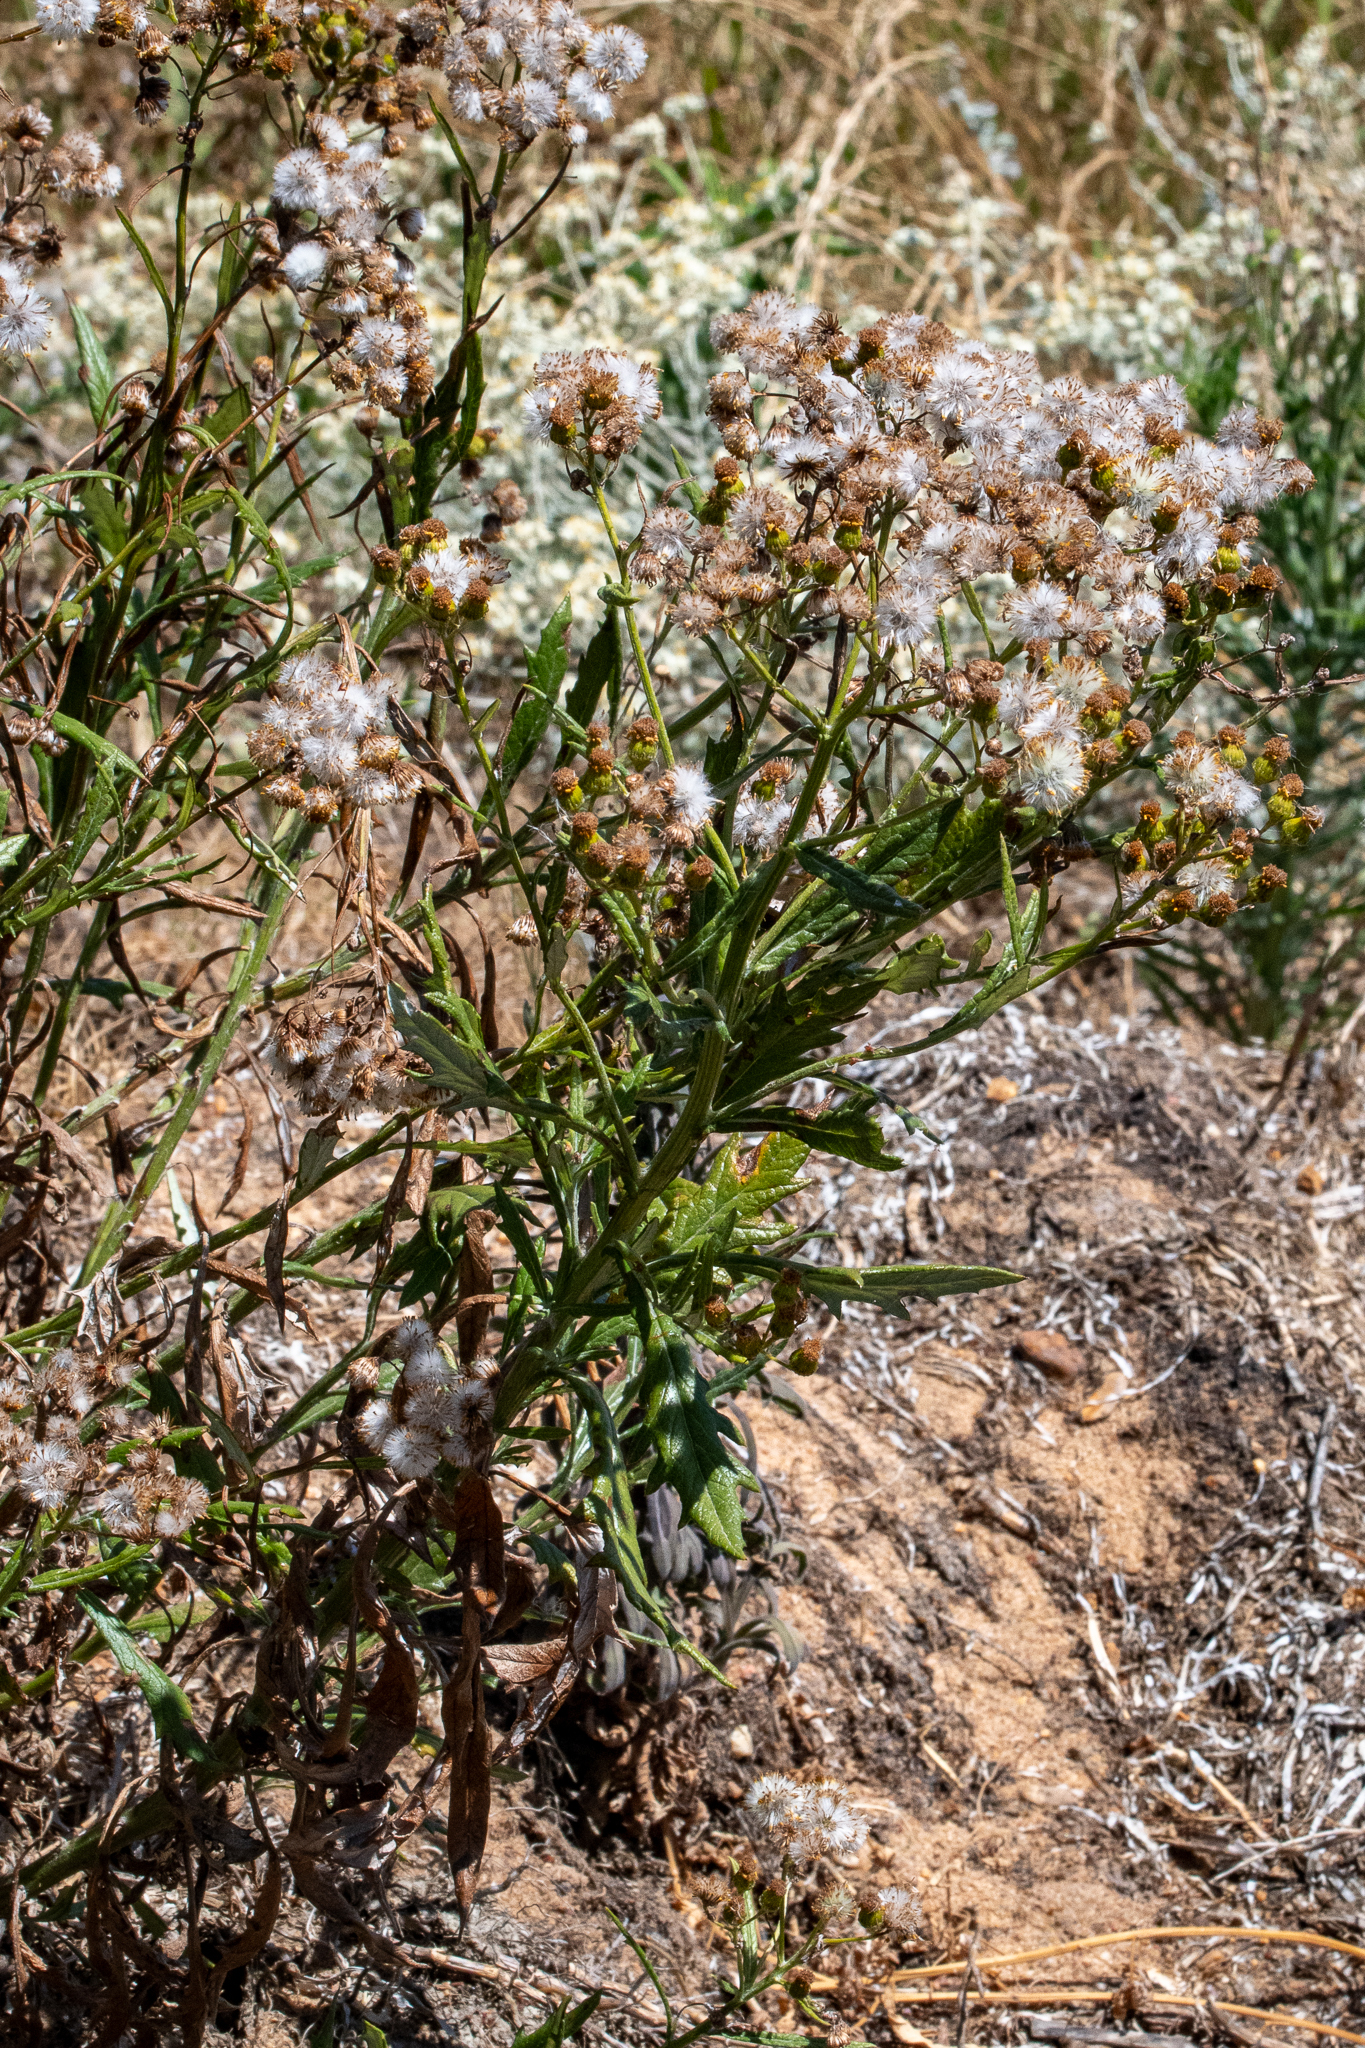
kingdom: Plantae
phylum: Tracheophyta
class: Magnoliopsida
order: Asterales
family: Asteraceae
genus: Senecio
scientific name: Senecio pterophorus
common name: Shoddy ragwort
